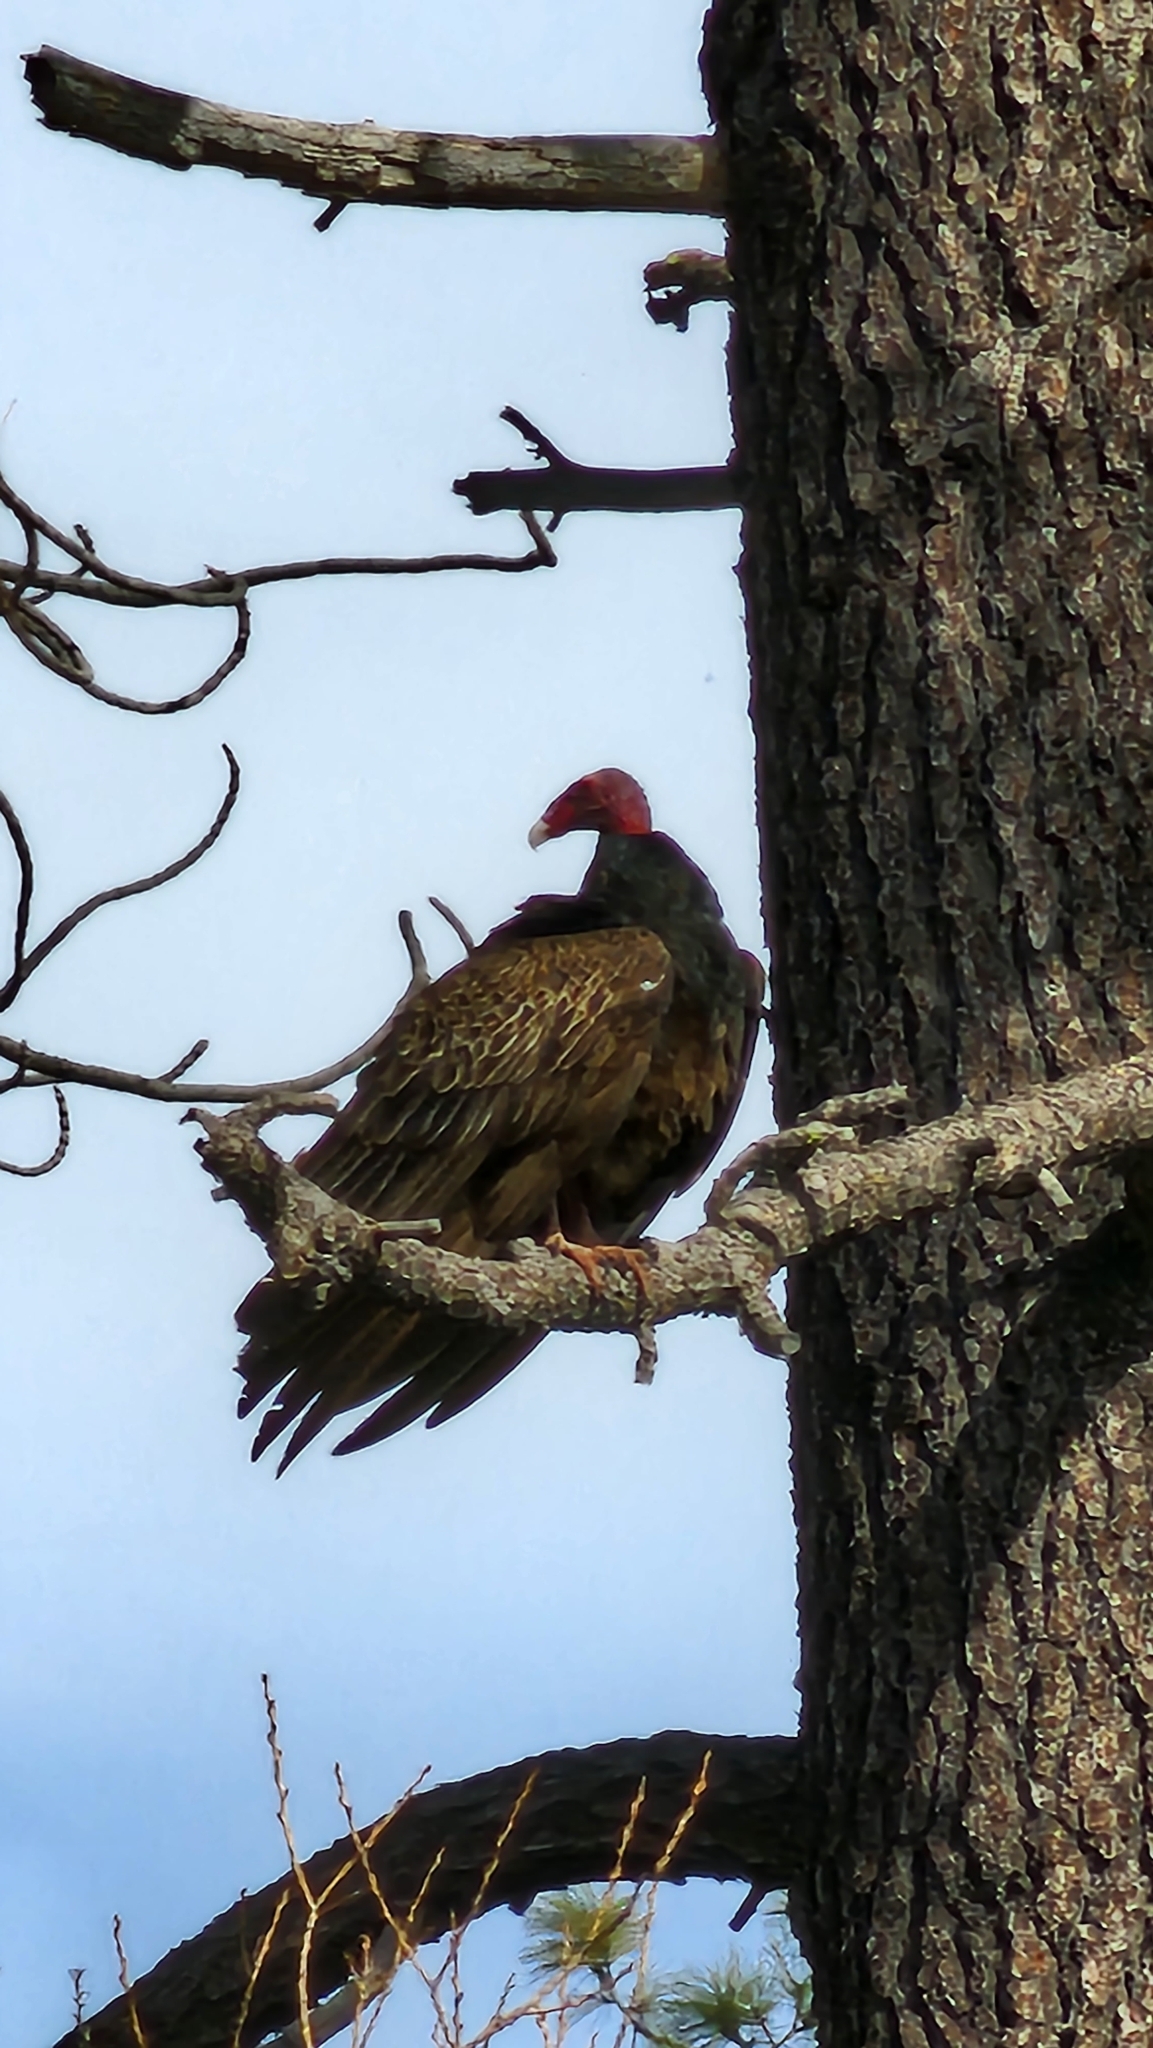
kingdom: Animalia
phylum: Chordata
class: Aves
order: Accipitriformes
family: Cathartidae
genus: Cathartes
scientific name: Cathartes aura
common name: Turkey vulture
